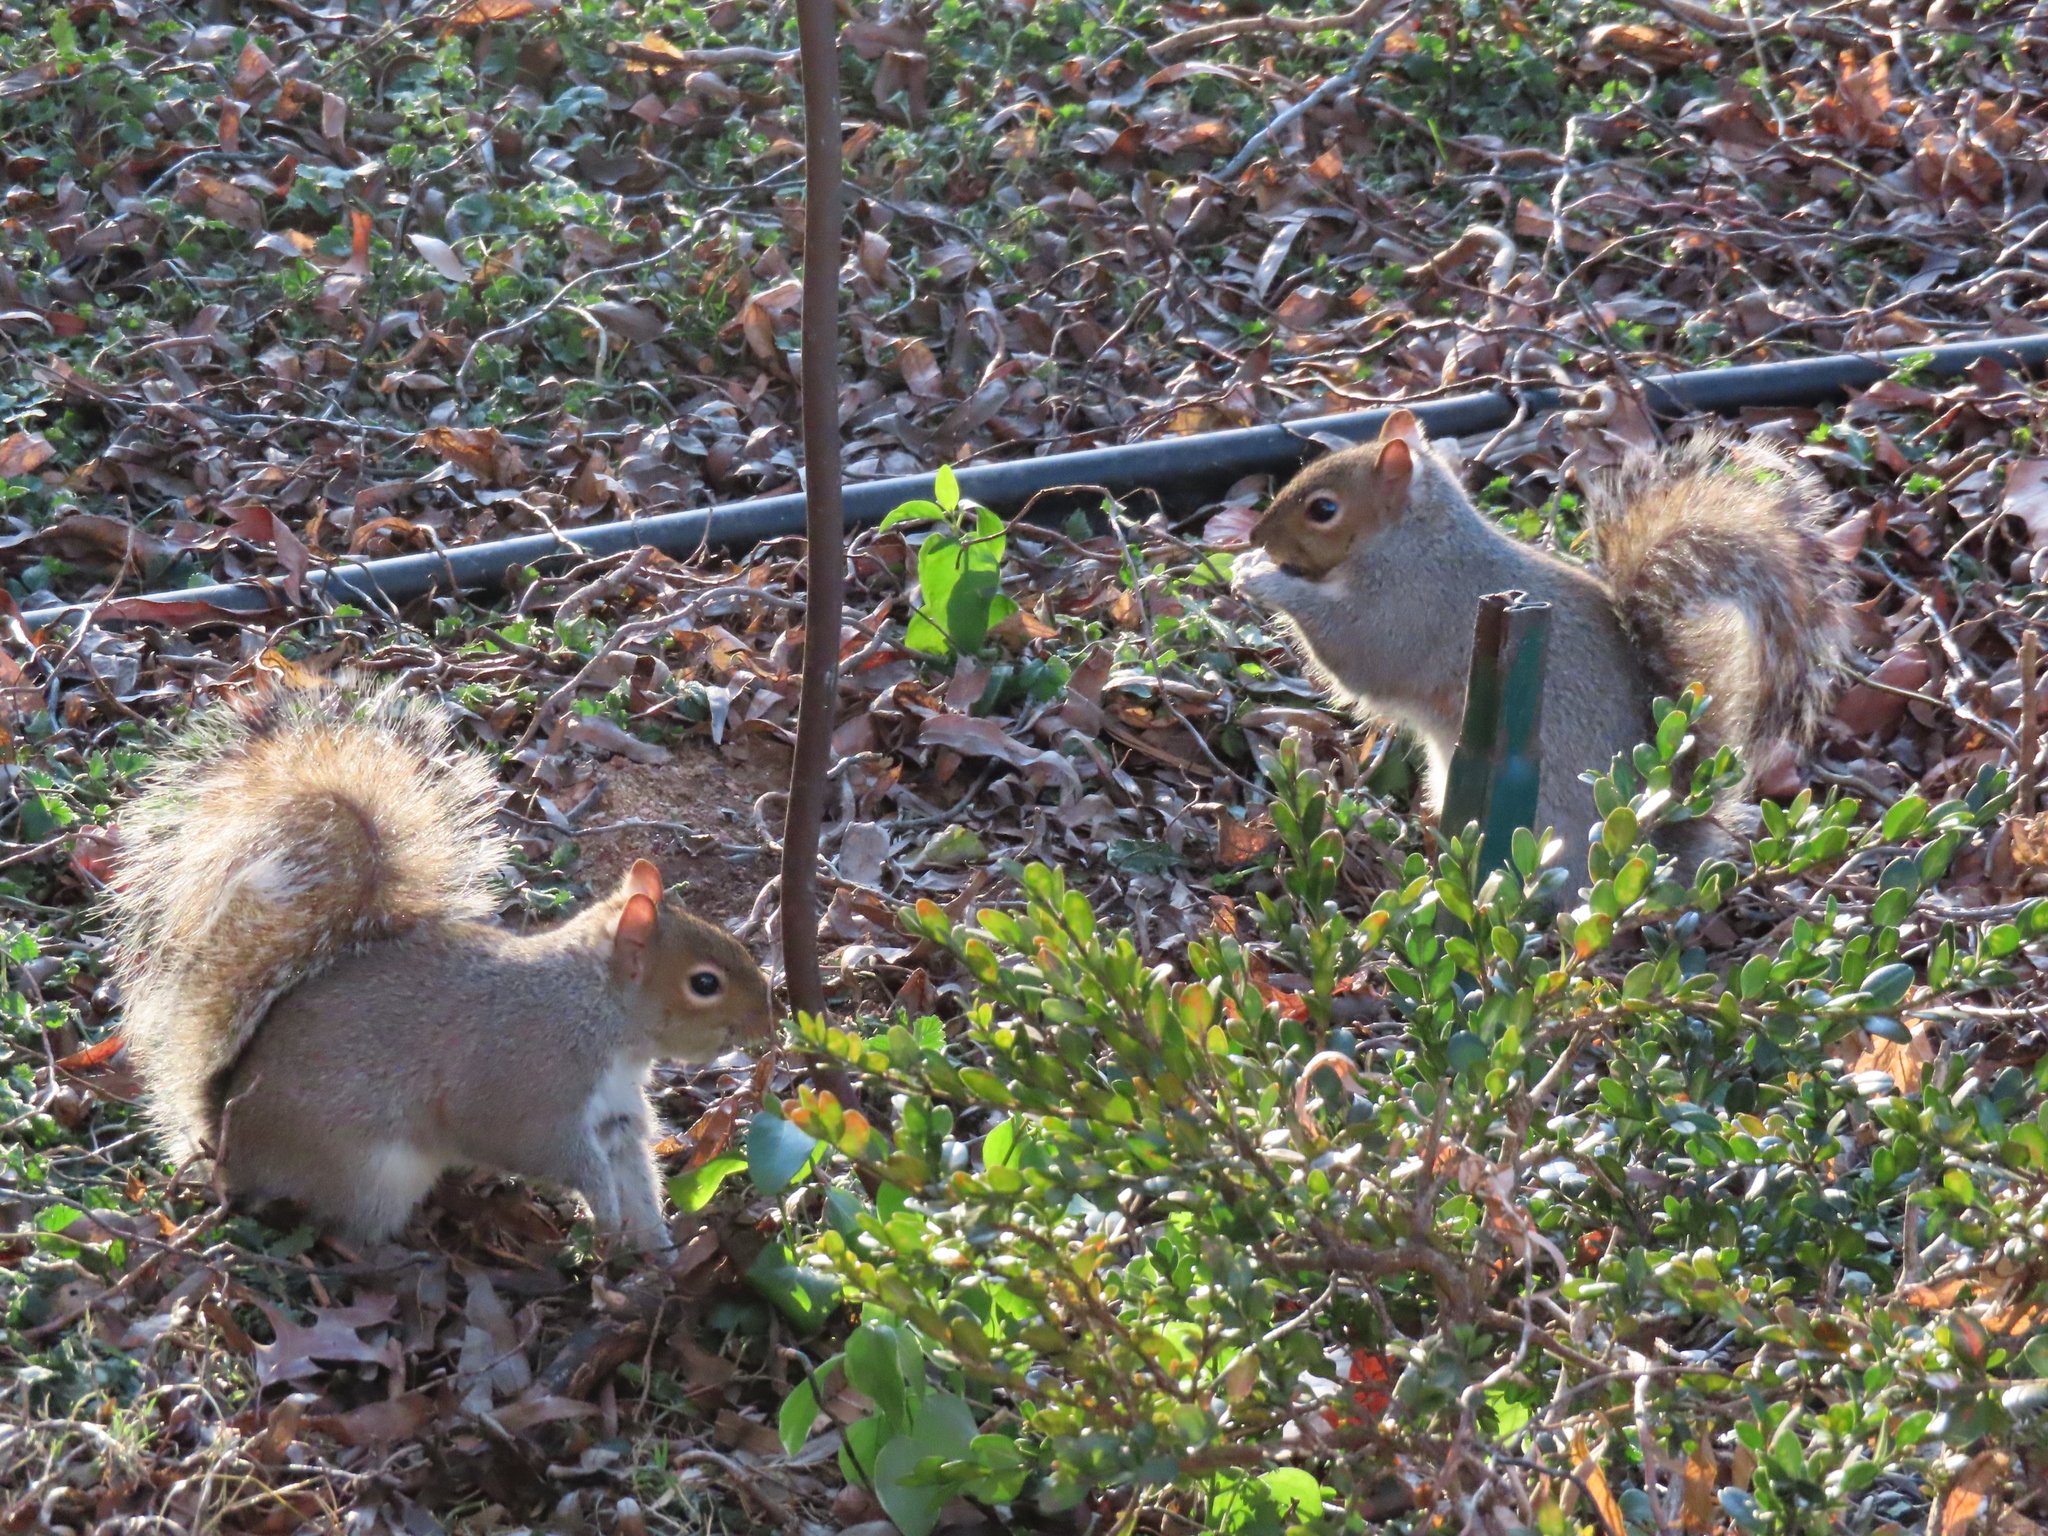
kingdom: Animalia
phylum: Chordata
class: Mammalia
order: Rodentia
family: Sciuridae
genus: Sciurus
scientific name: Sciurus carolinensis
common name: Eastern gray squirrel
